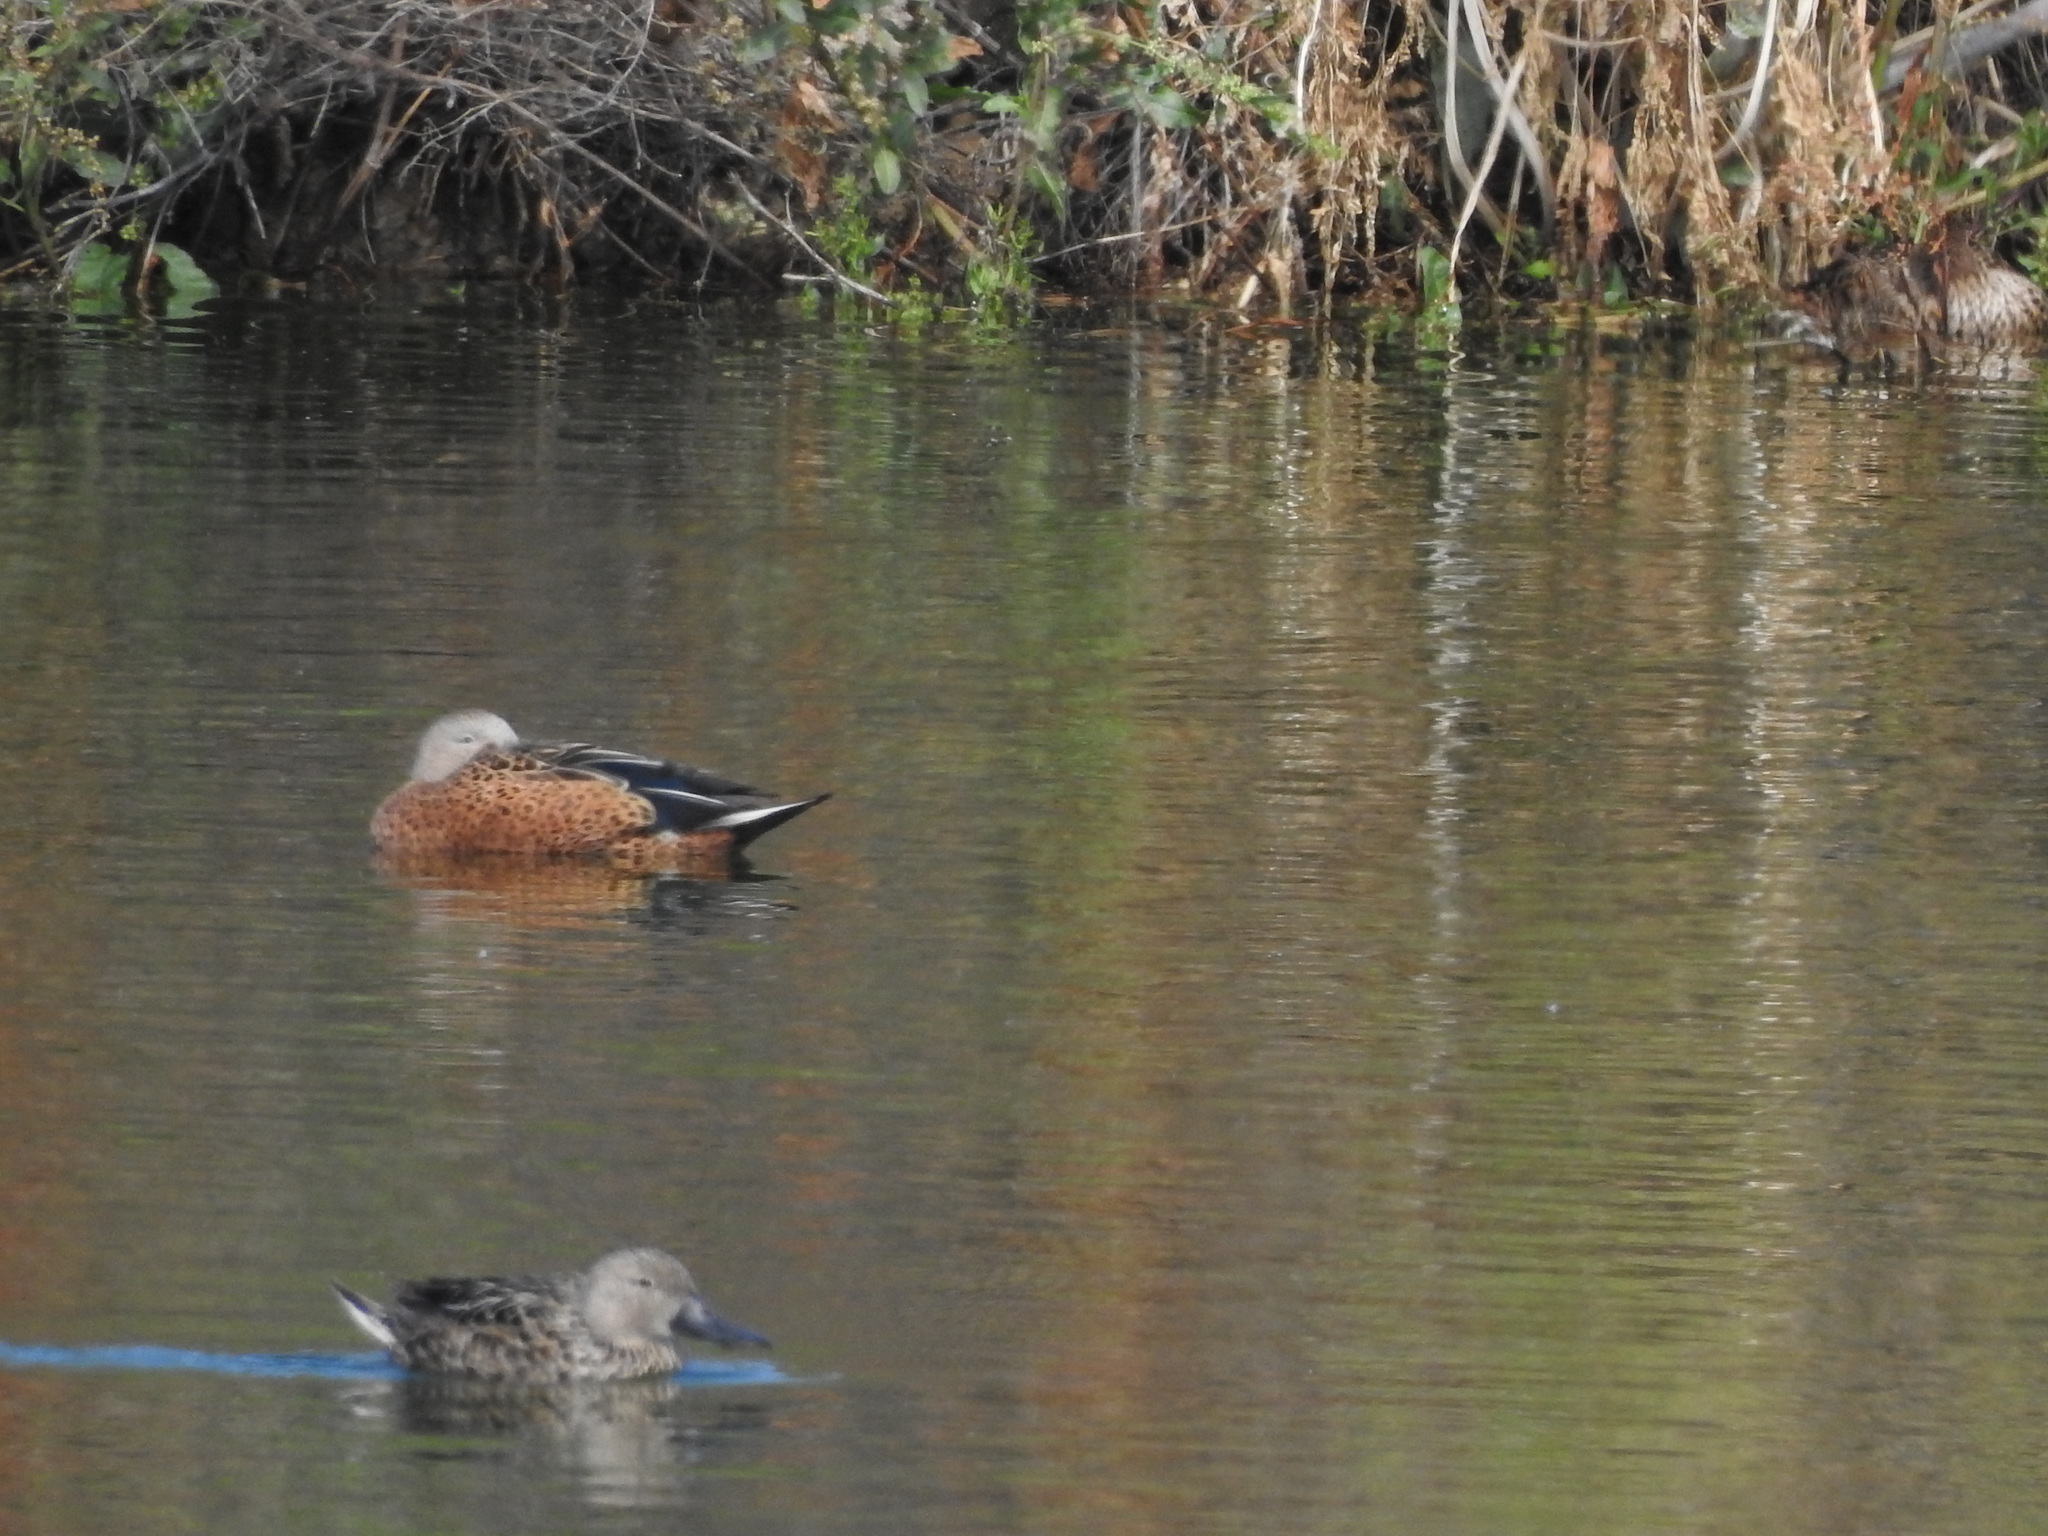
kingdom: Animalia
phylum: Chordata
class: Aves
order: Anseriformes
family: Anatidae
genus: Spatula
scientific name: Spatula platalea
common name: Red shoveler
